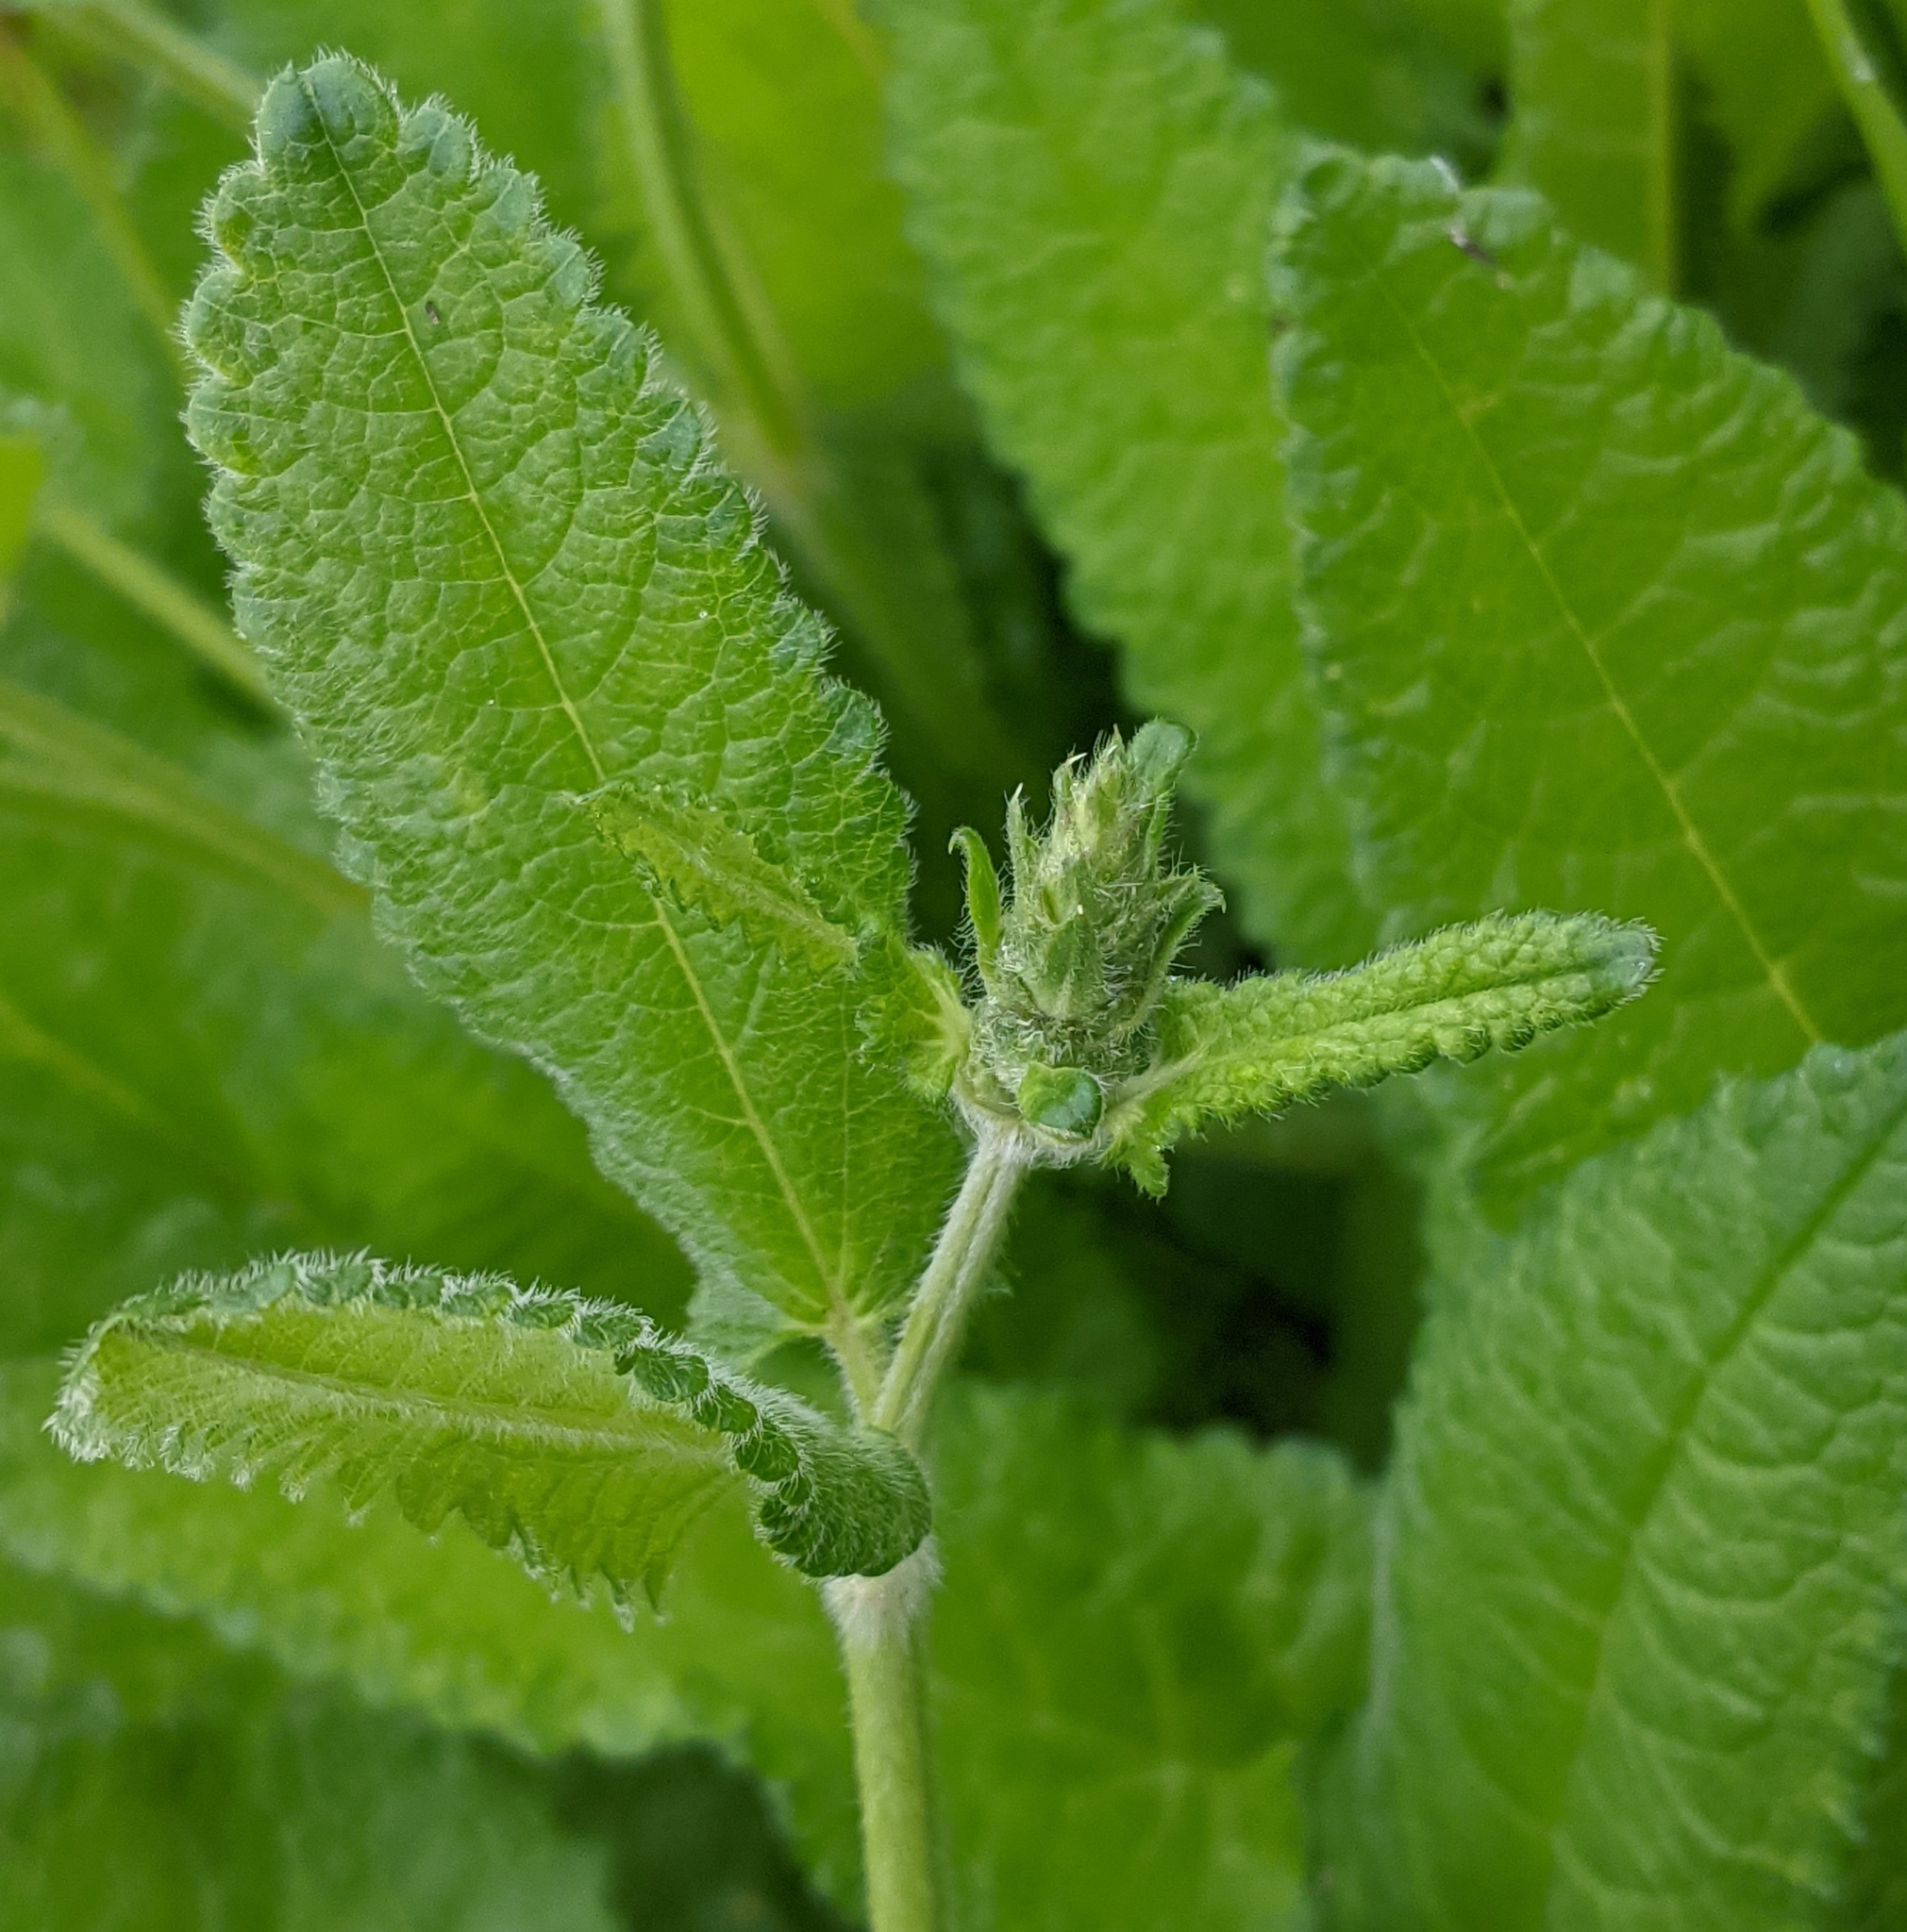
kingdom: Plantae
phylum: Tracheophyta
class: Magnoliopsida
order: Lamiales
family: Lamiaceae
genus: Betonica
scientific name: Betonica officinalis
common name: Bishop's-wort
